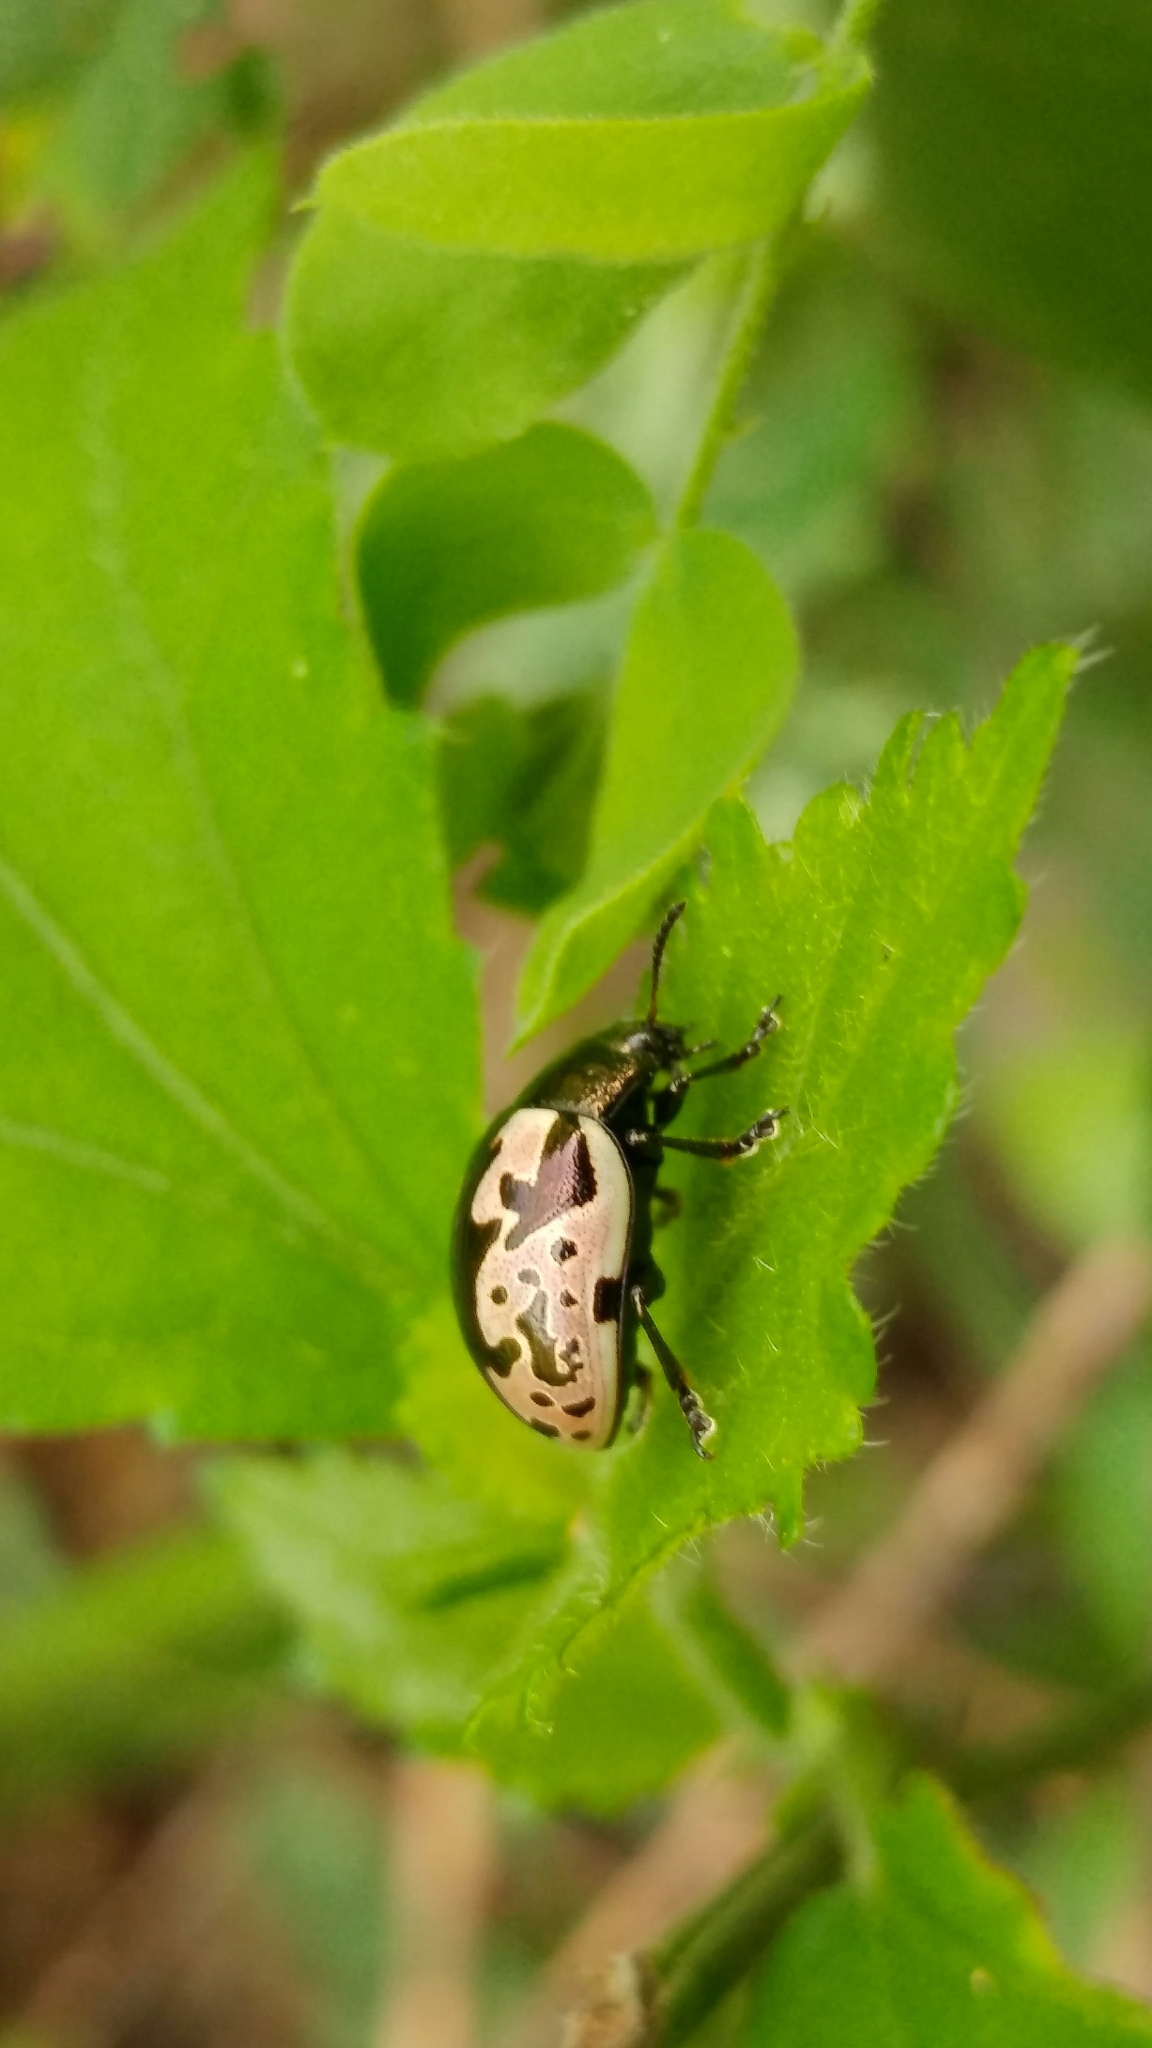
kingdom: Animalia
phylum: Arthropoda
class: Insecta
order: Coleoptera
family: Chrysomelidae
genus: Calligrapha
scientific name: Calligrapha ancoralis
